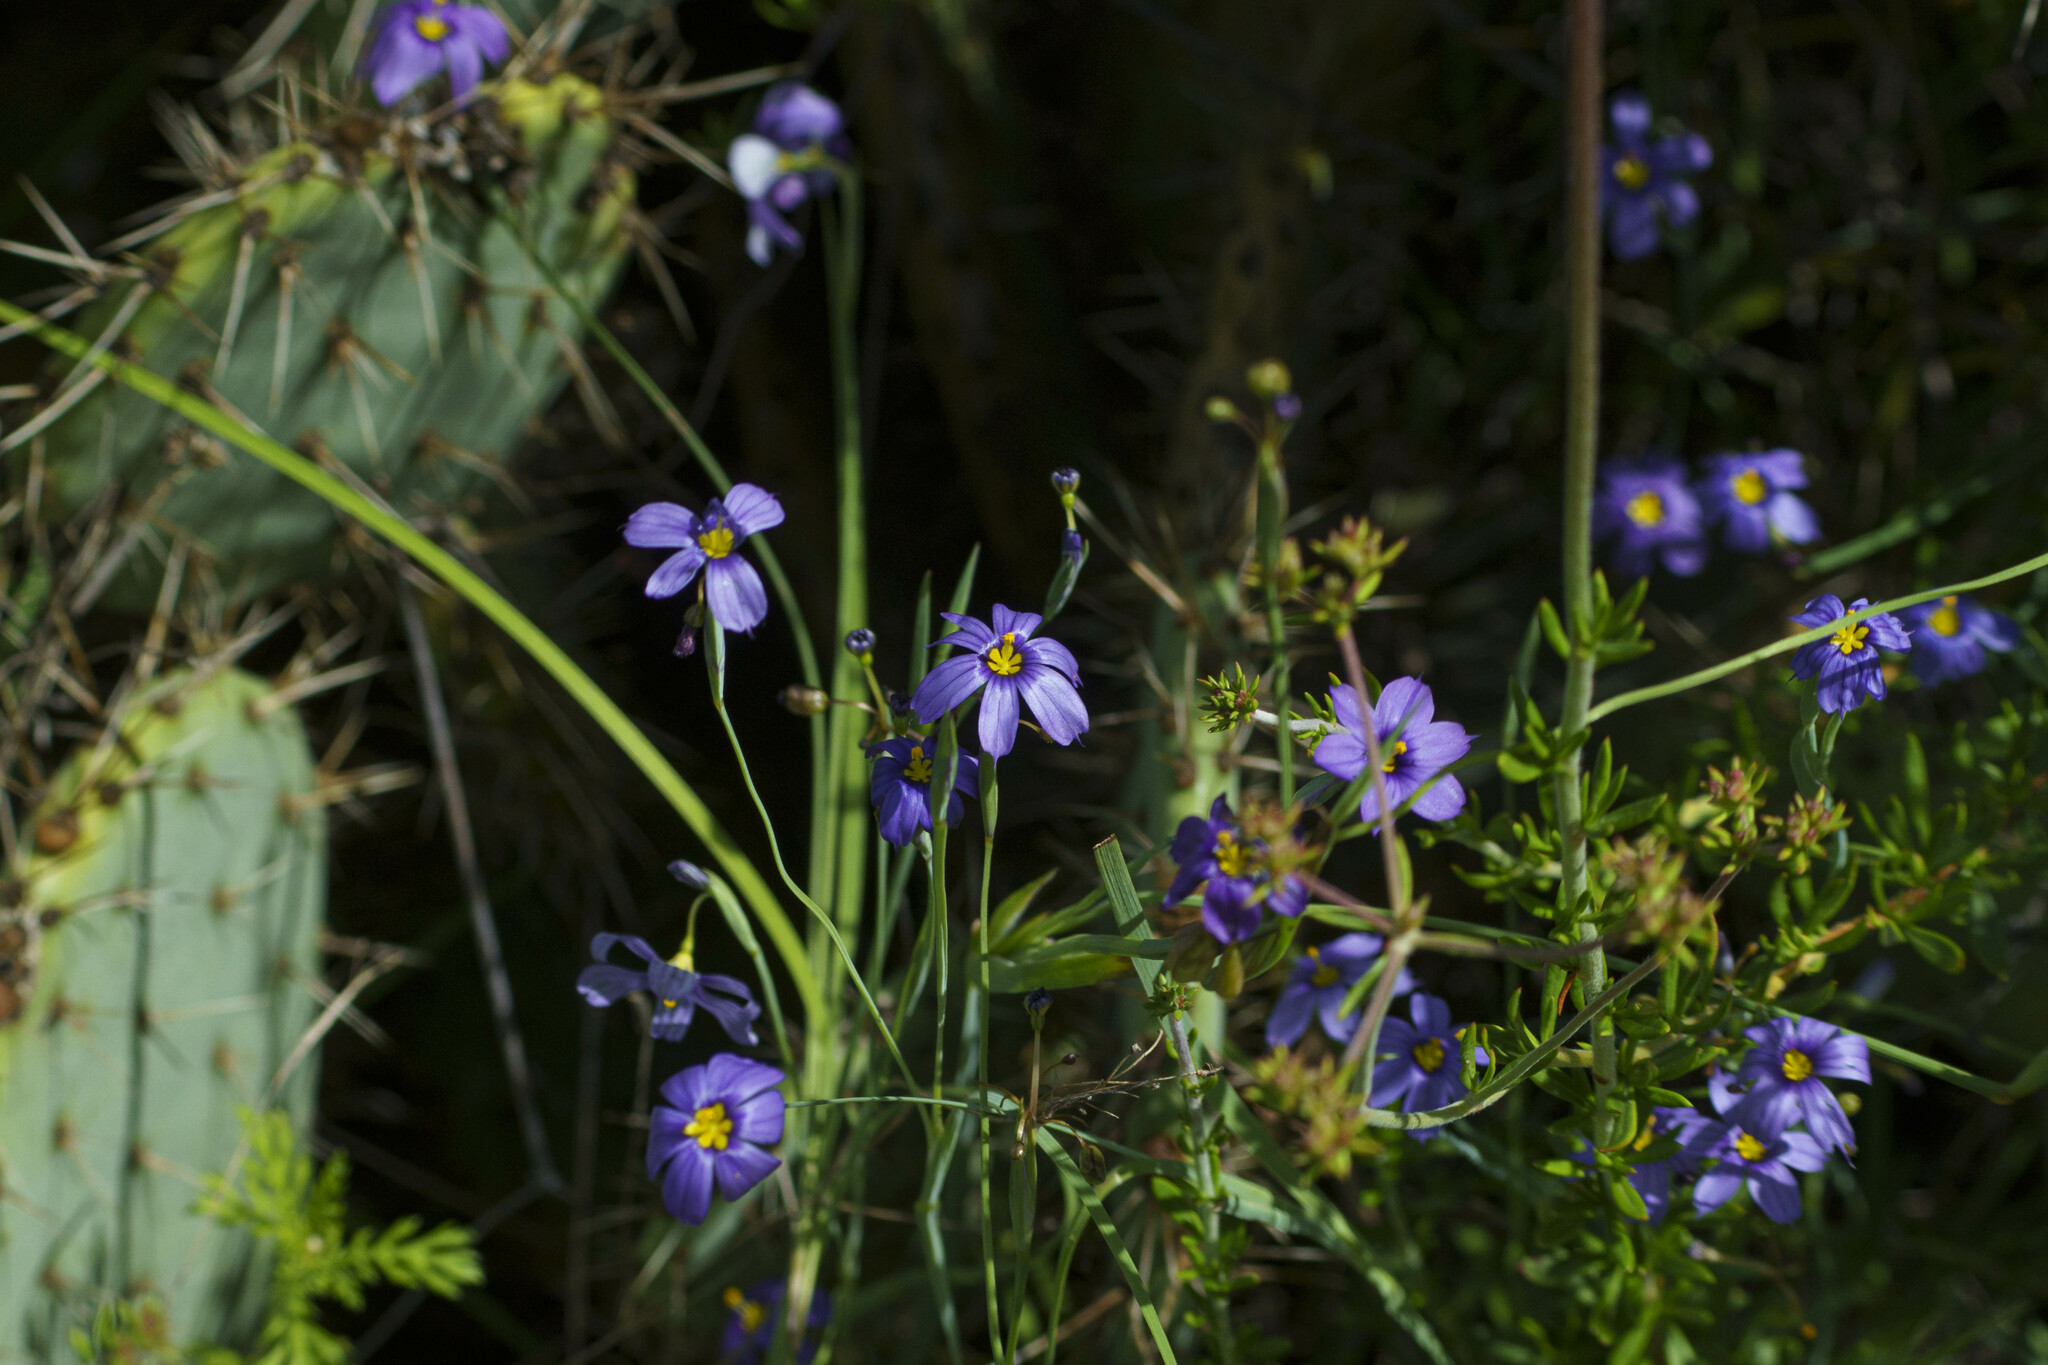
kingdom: Plantae
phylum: Tracheophyta
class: Liliopsida
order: Asparagales
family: Iridaceae
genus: Sisyrinchium
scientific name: Sisyrinchium bellum
